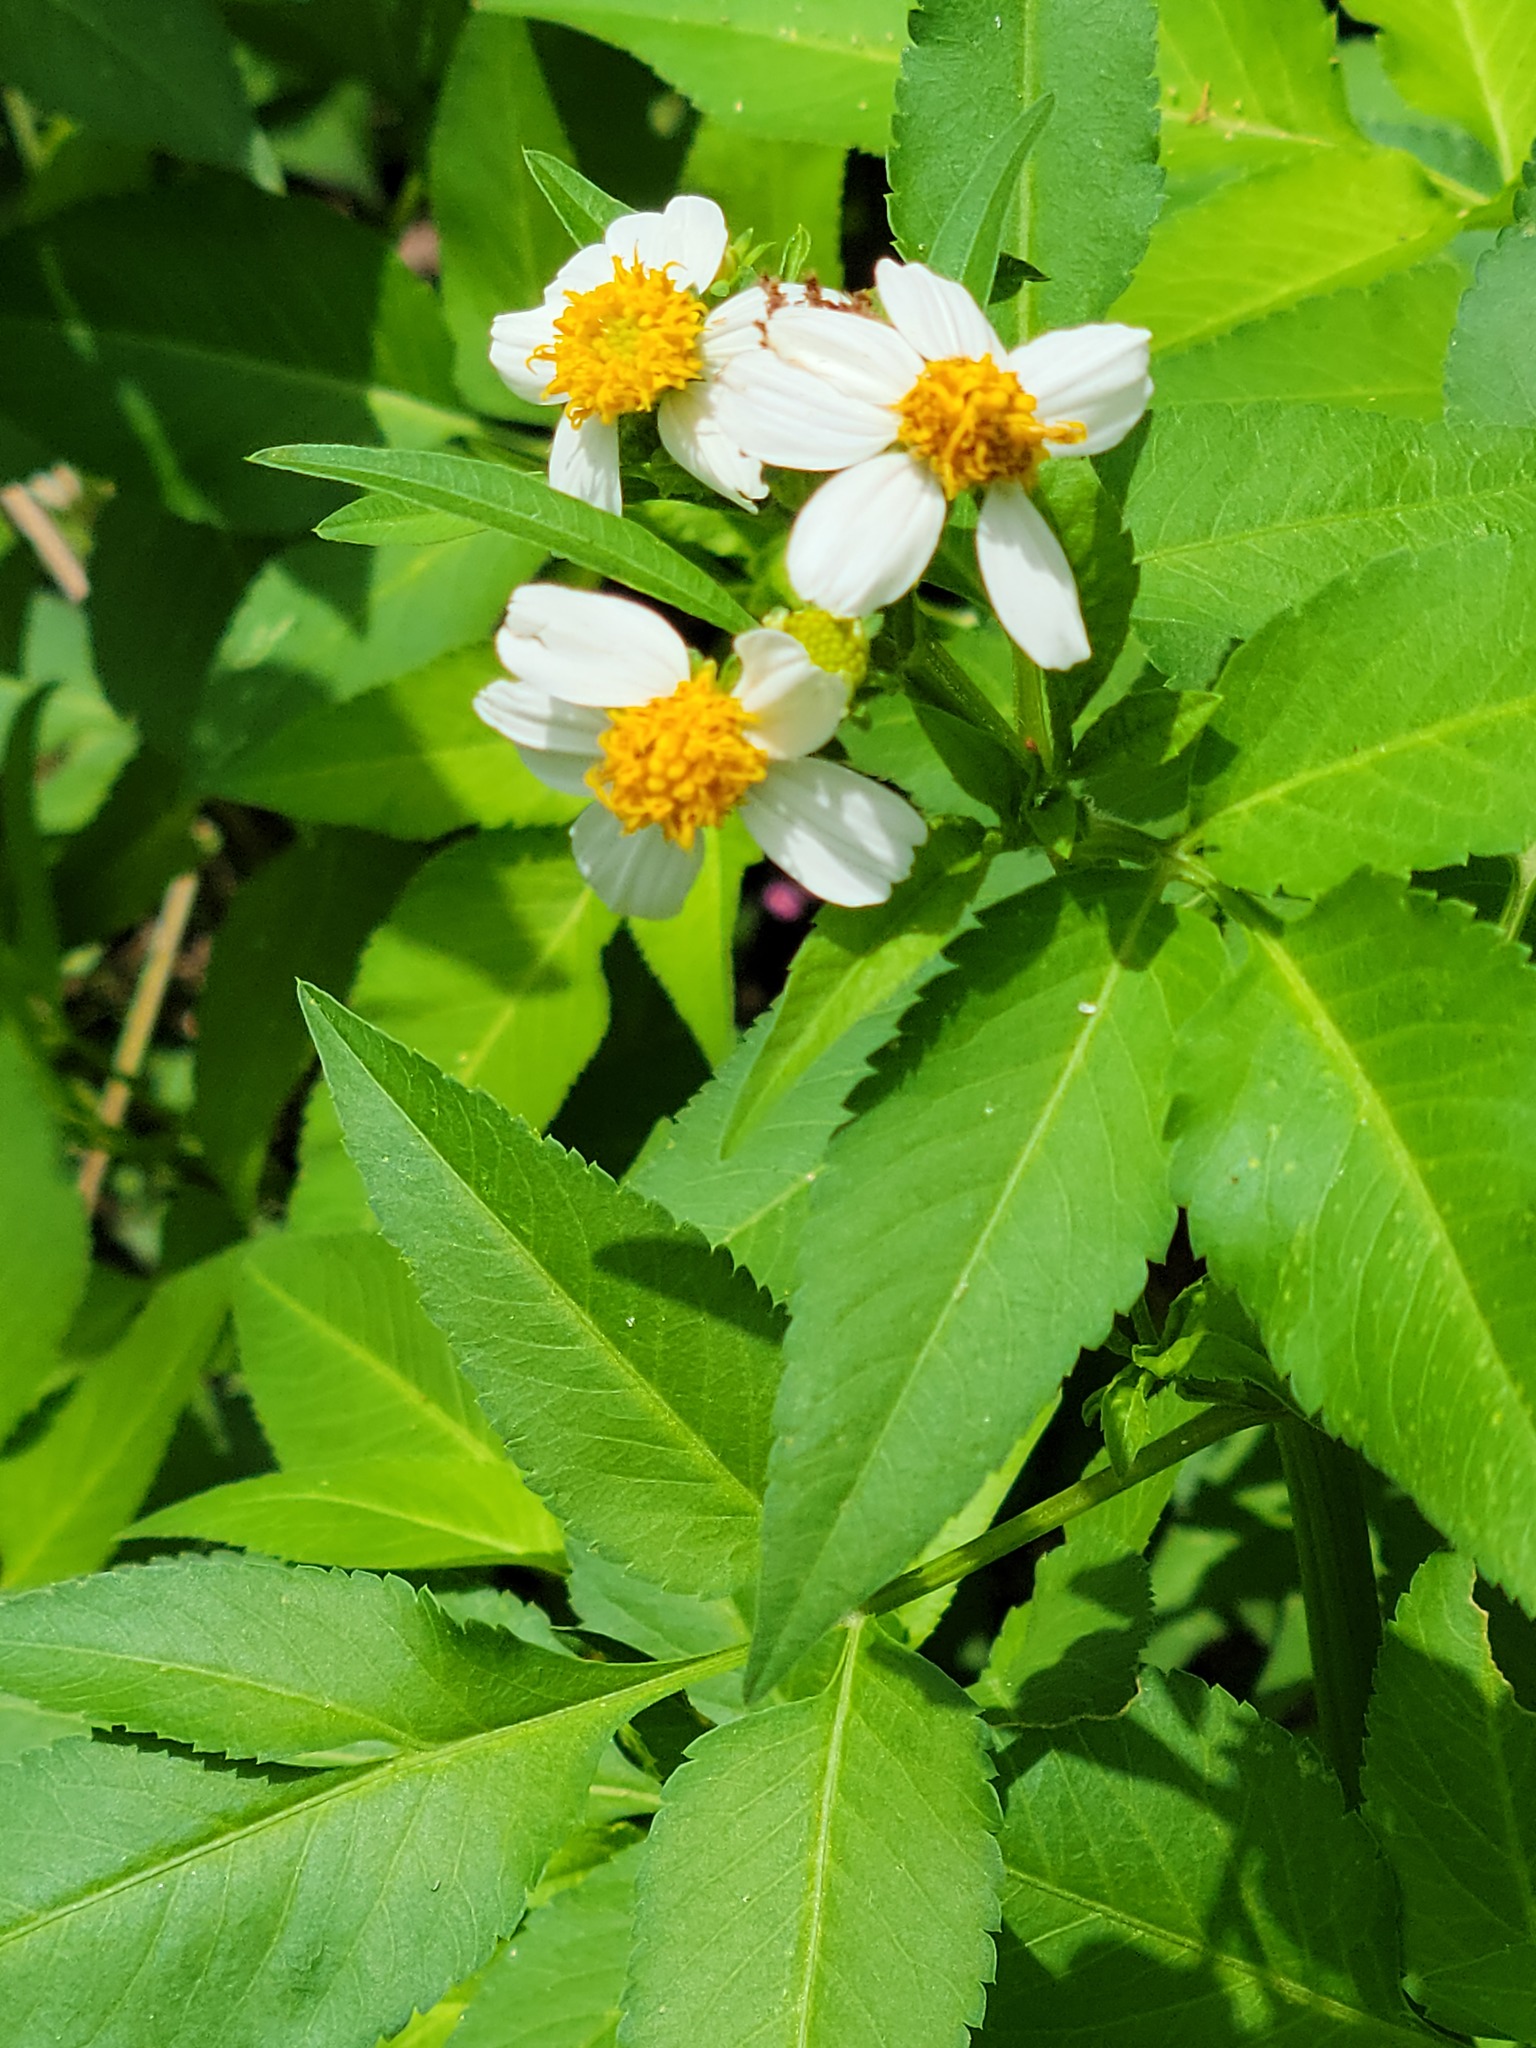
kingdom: Plantae
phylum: Tracheophyta
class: Magnoliopsida
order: Asterales
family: Asteraceae
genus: Bidens
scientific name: Bidens alba
